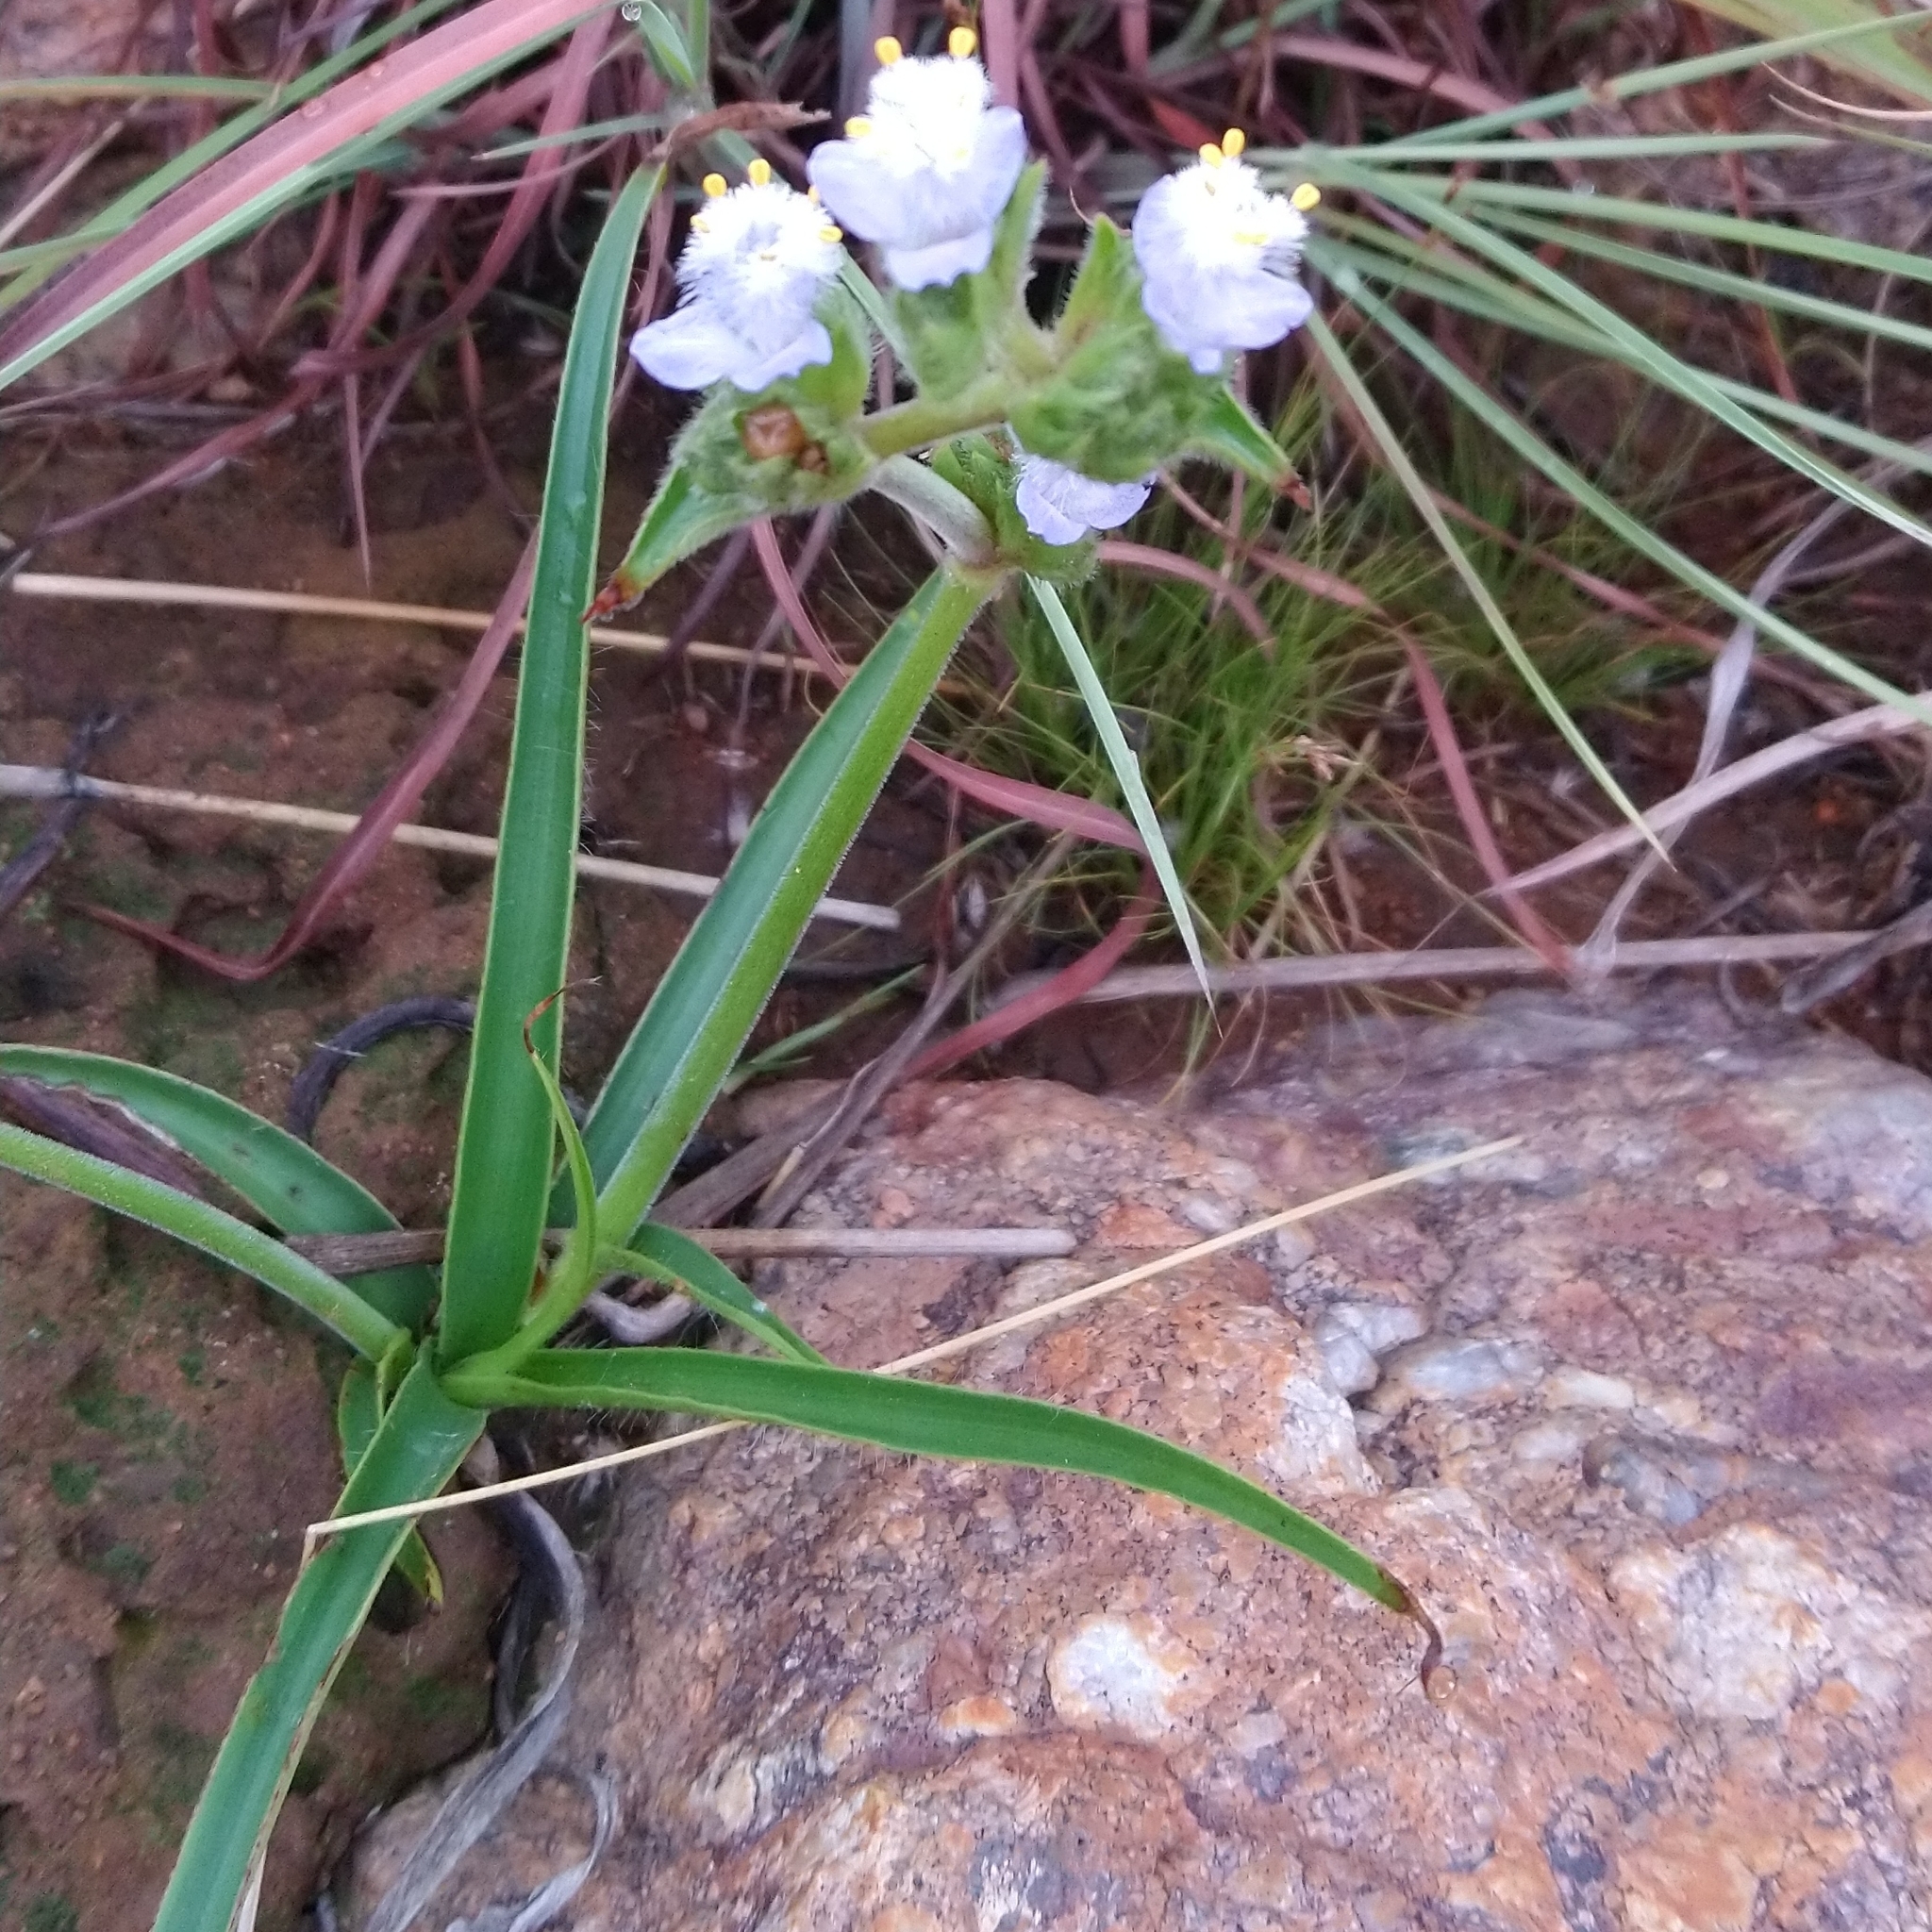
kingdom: Plantae
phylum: Tracheophyta
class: Liliopsida
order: Commelinales
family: Commelinaceae
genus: Cyanotis
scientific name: Cyanotis speciosa
